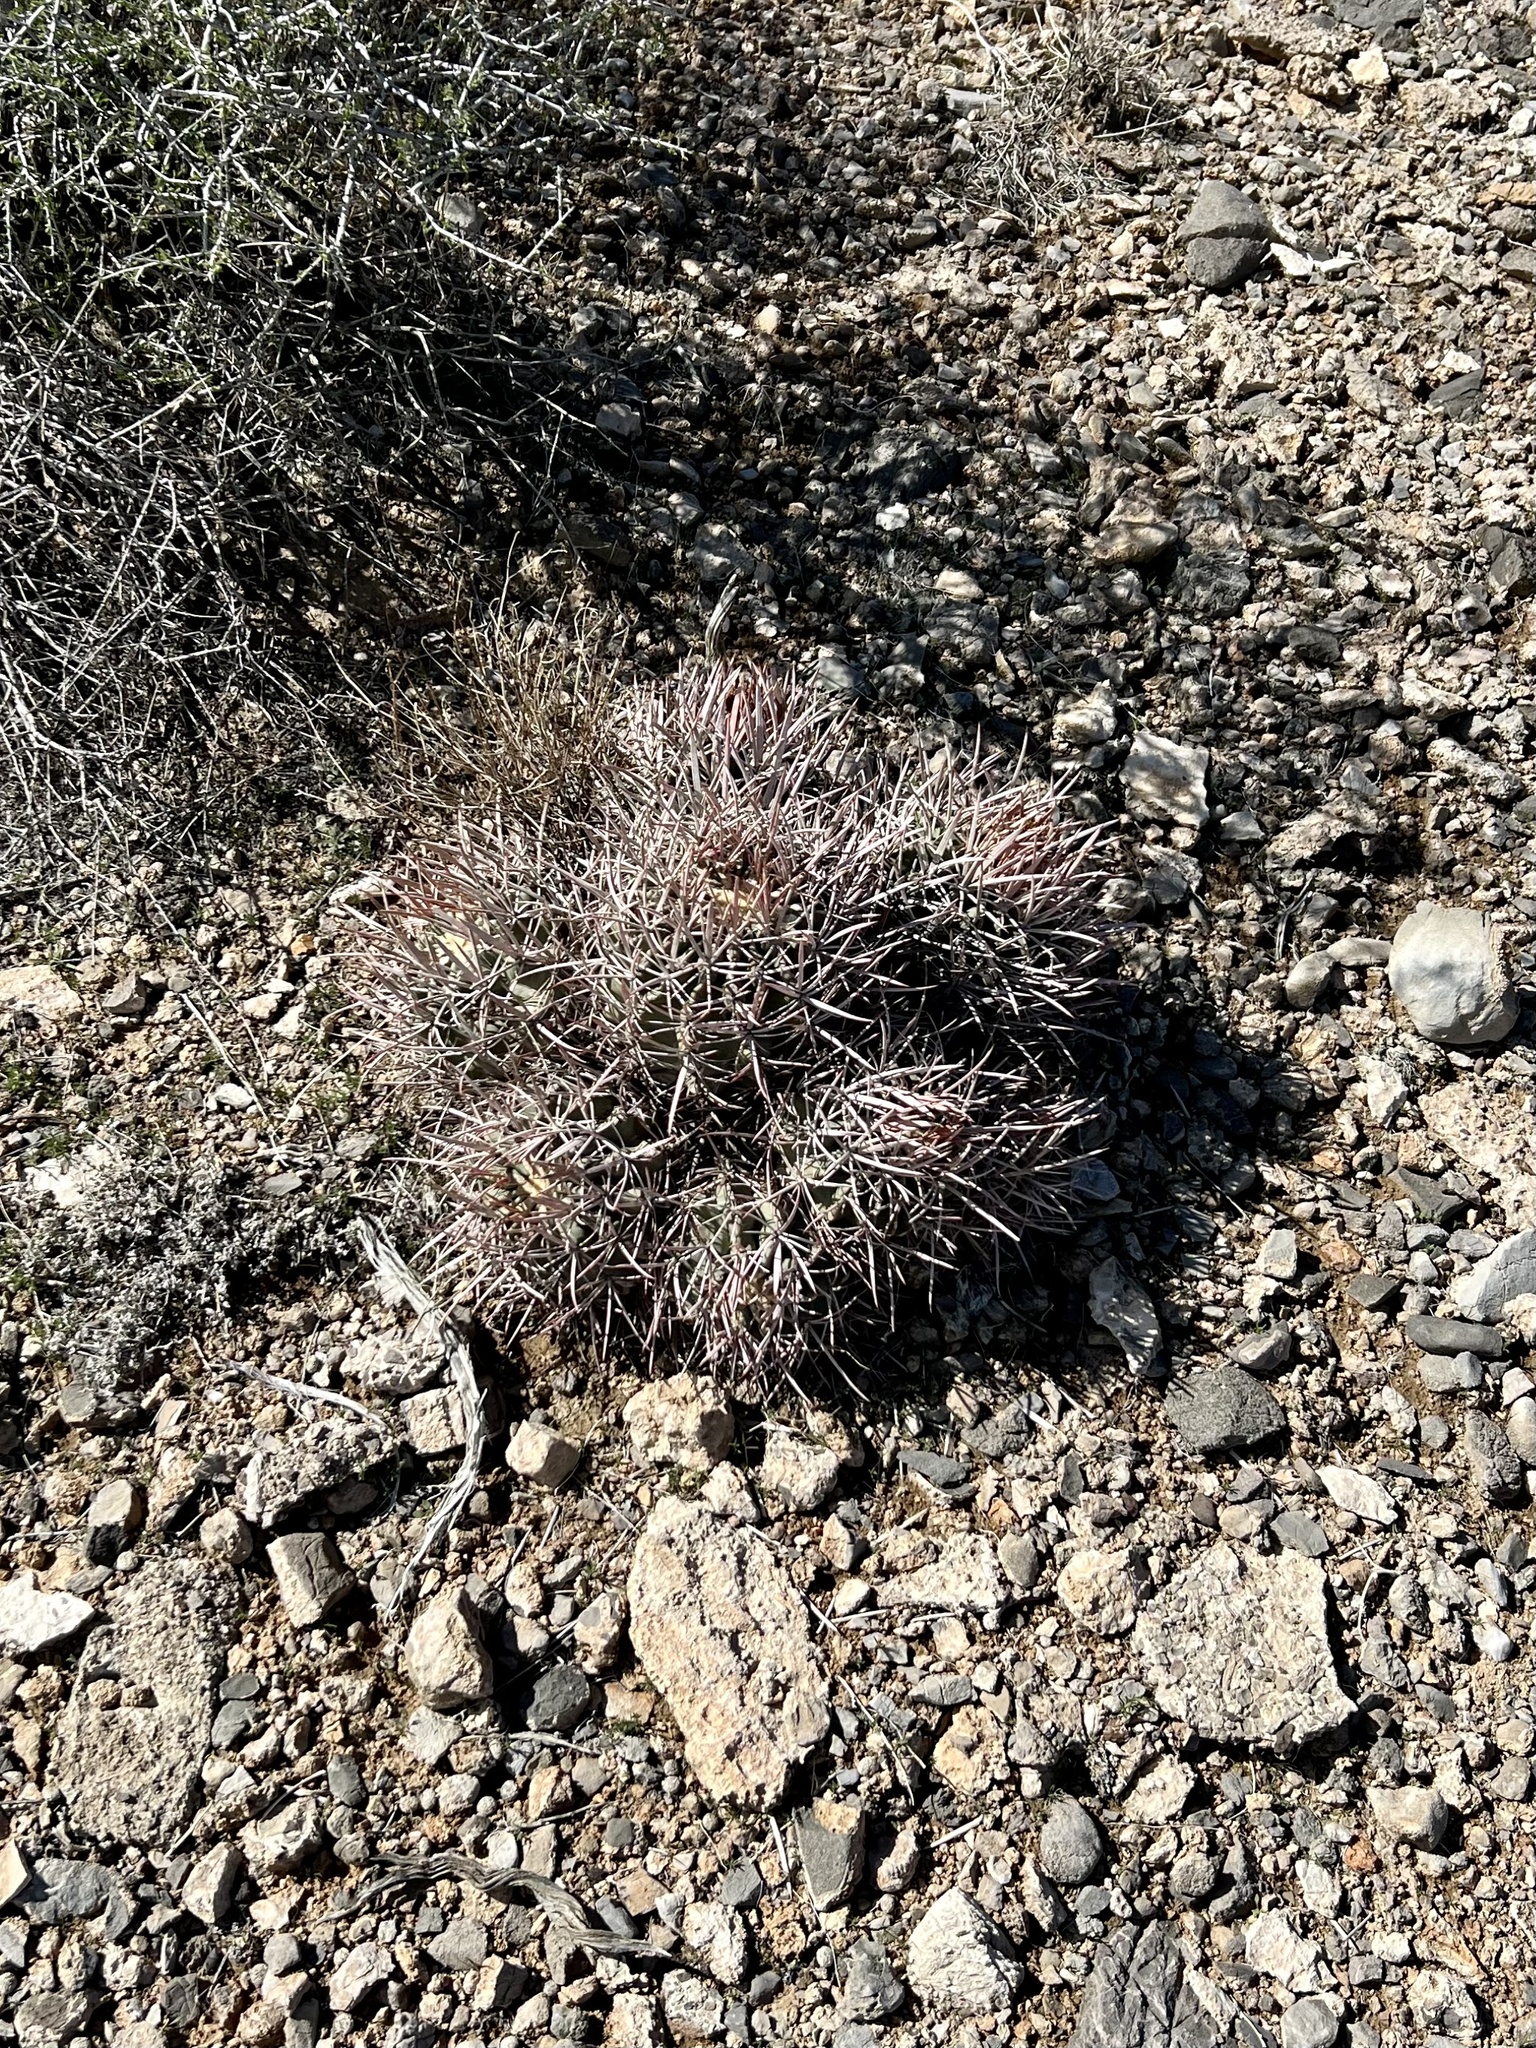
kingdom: Plantae
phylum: Tracheophyta
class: Magnoliopsida
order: Caryophyllales
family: Cactaceae
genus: Echinocactus
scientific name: Echinocactus polycephalus
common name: Cottontop cactus
